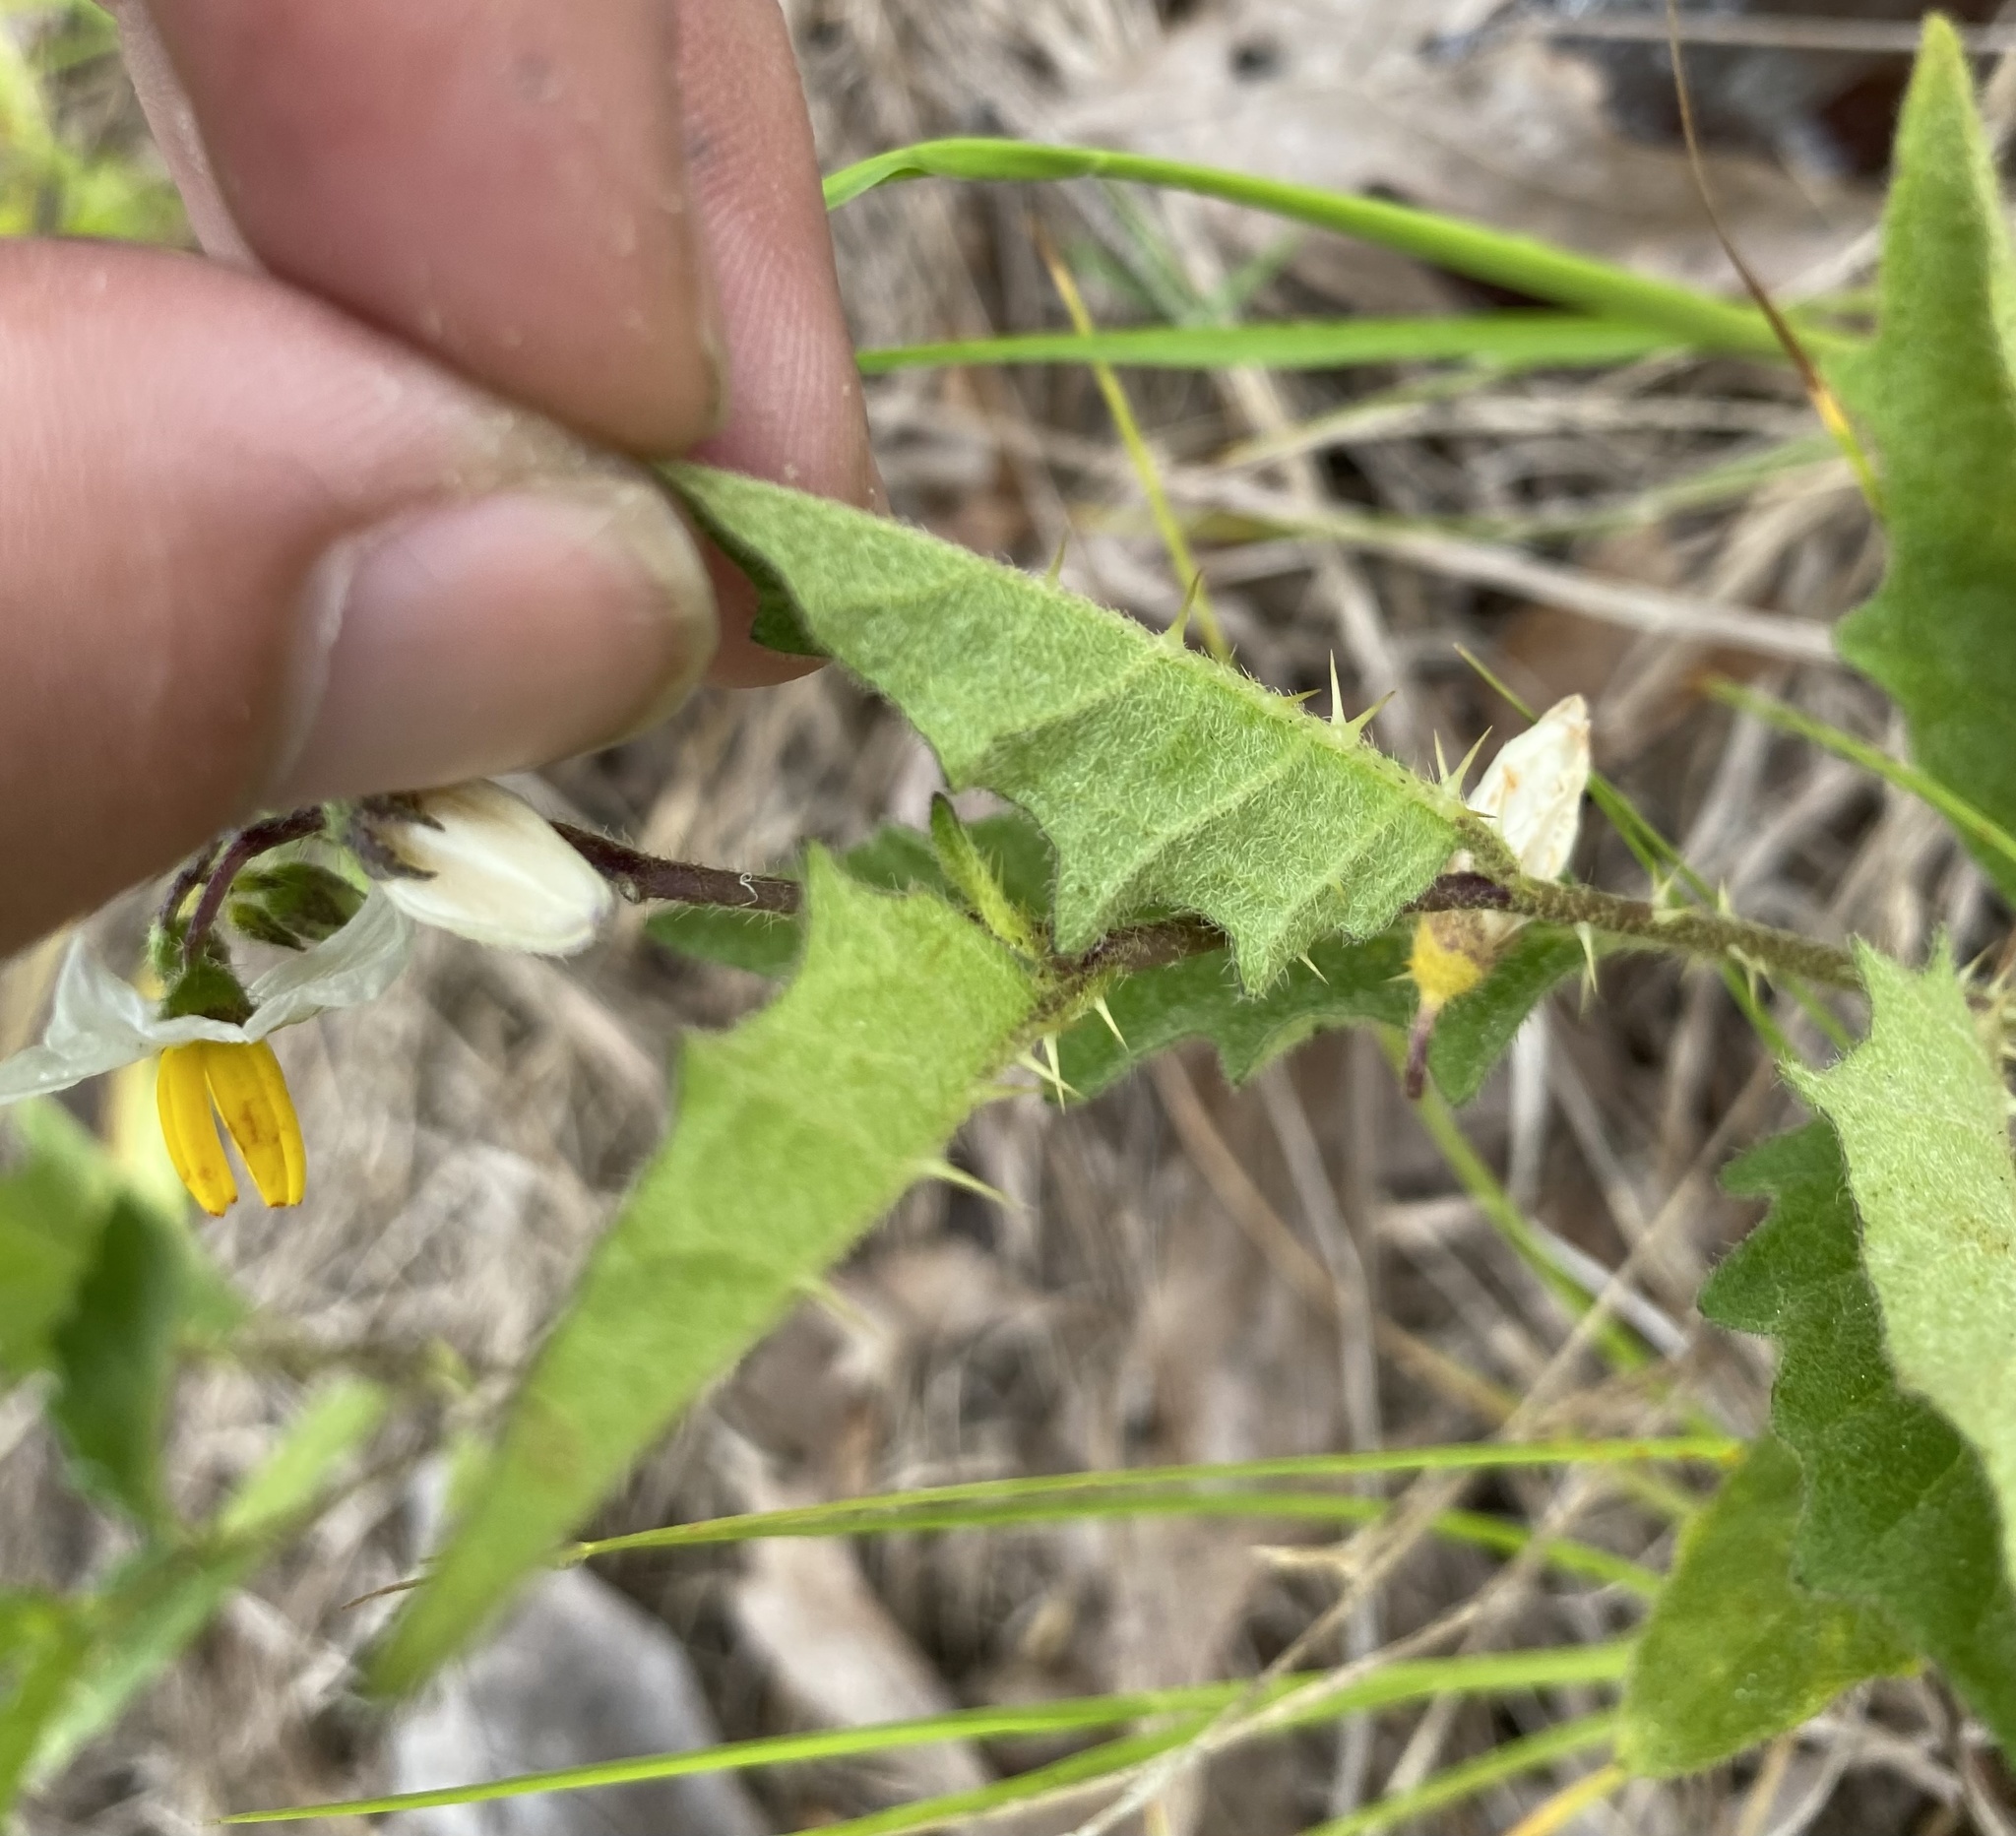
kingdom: Plantae
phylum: Tracheophyta
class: Magnoliopsida
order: Solanales
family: Solanaceae
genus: Solanum
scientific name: Solanum carolinense
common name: Horse-nettle
